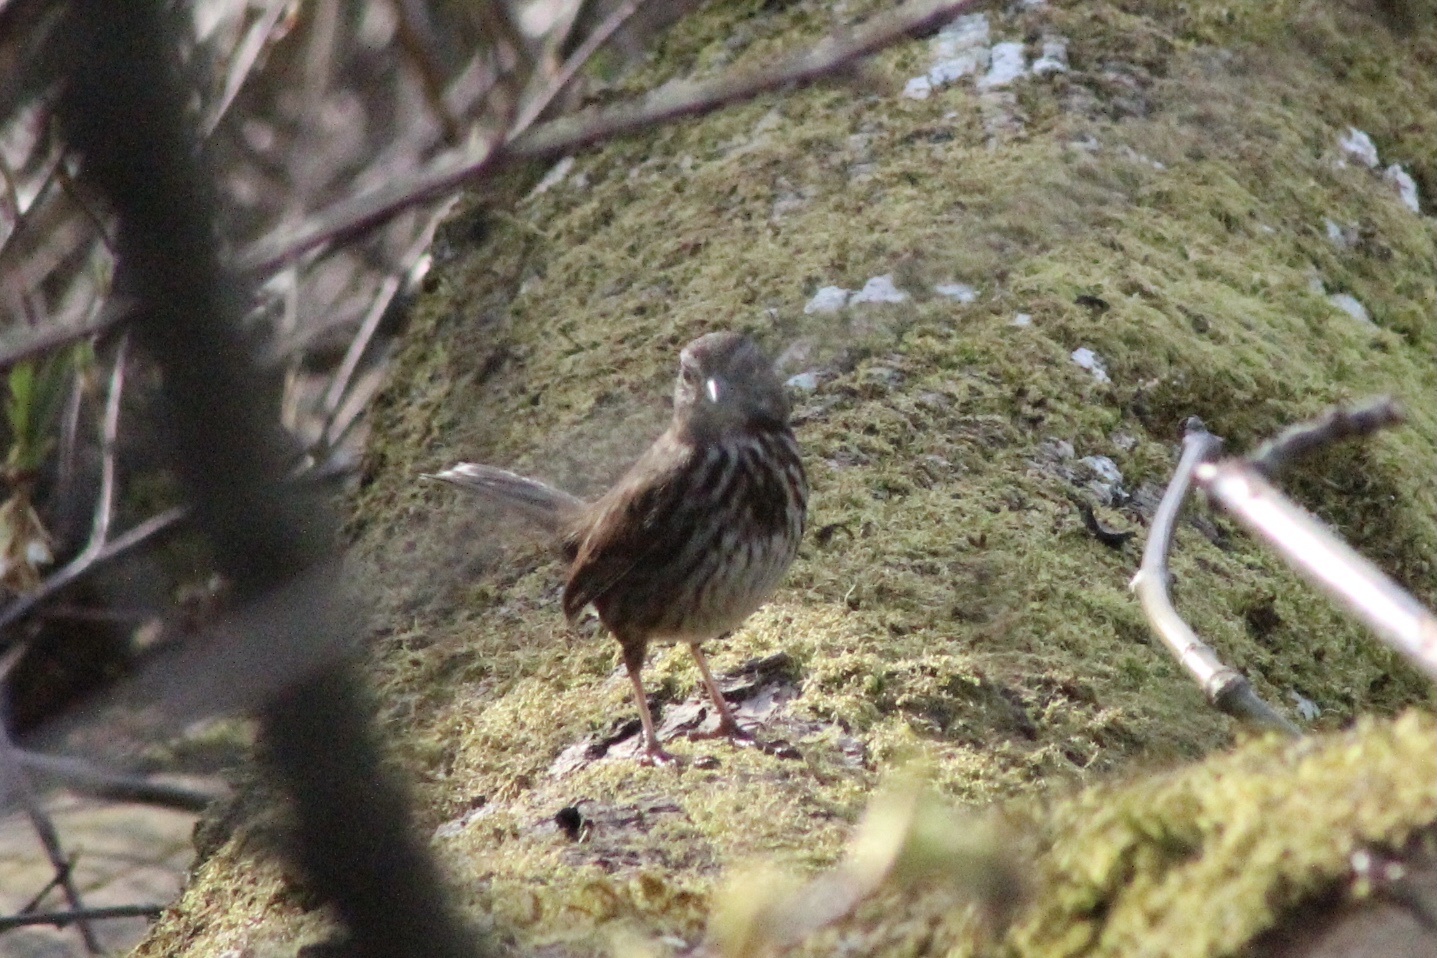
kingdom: Animalia
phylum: Chordata
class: Aves
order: Passeriformes
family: Passerellidae
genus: Melospiza
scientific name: Melospiza melodia
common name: Song sparrow
